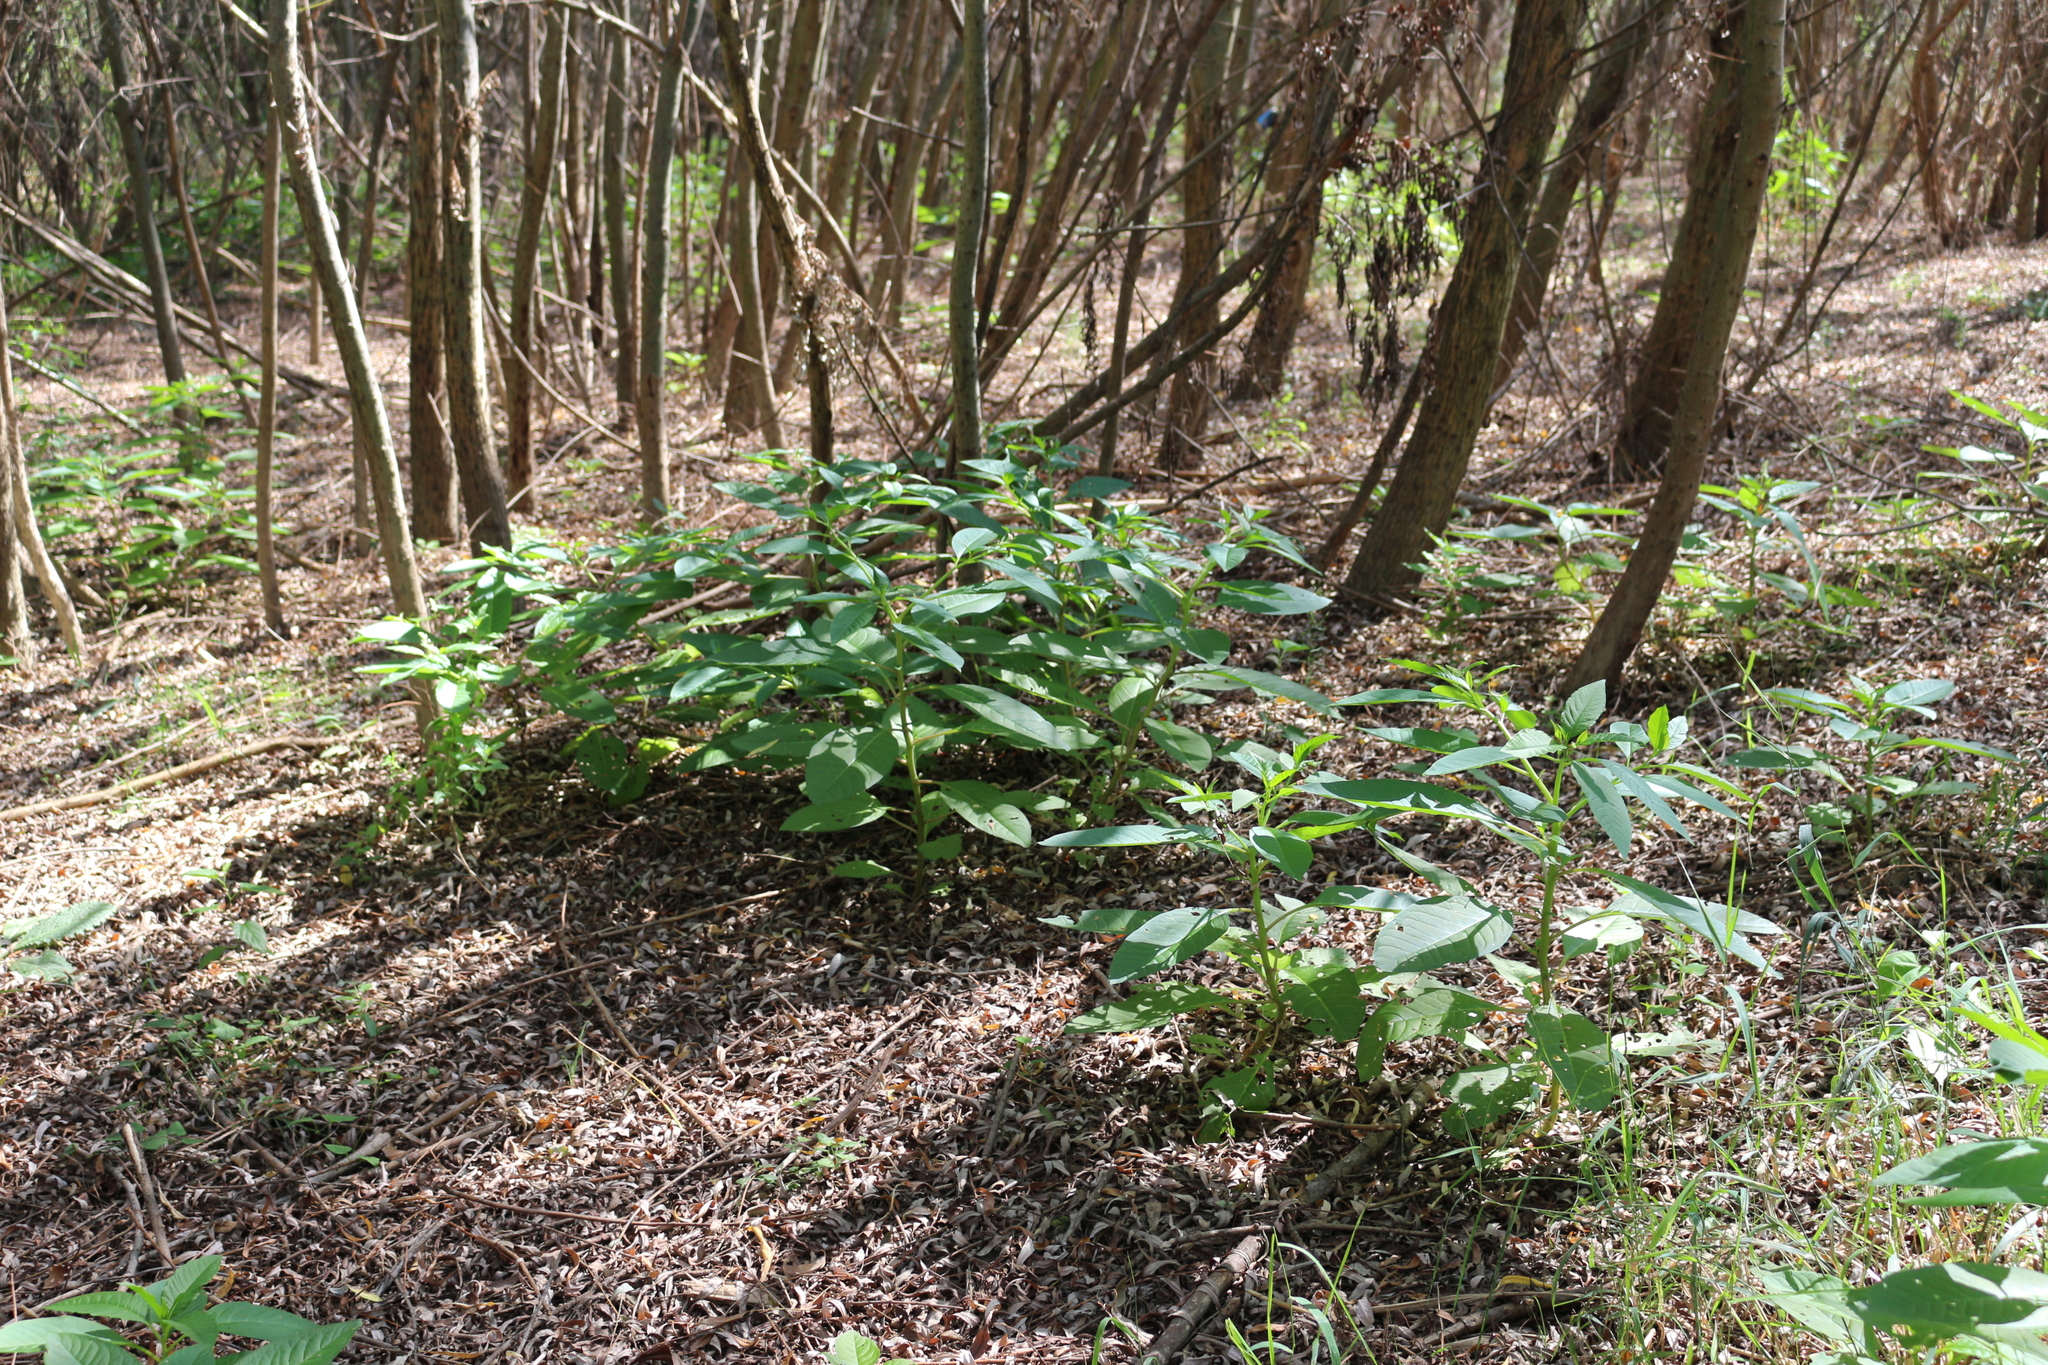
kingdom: Plantae
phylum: Tracheophyta
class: Magnoliopsida
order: Caryophyllales
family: Phytolaccaceae
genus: Phytolacca
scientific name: Phytolacca americana
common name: American pokeweed
